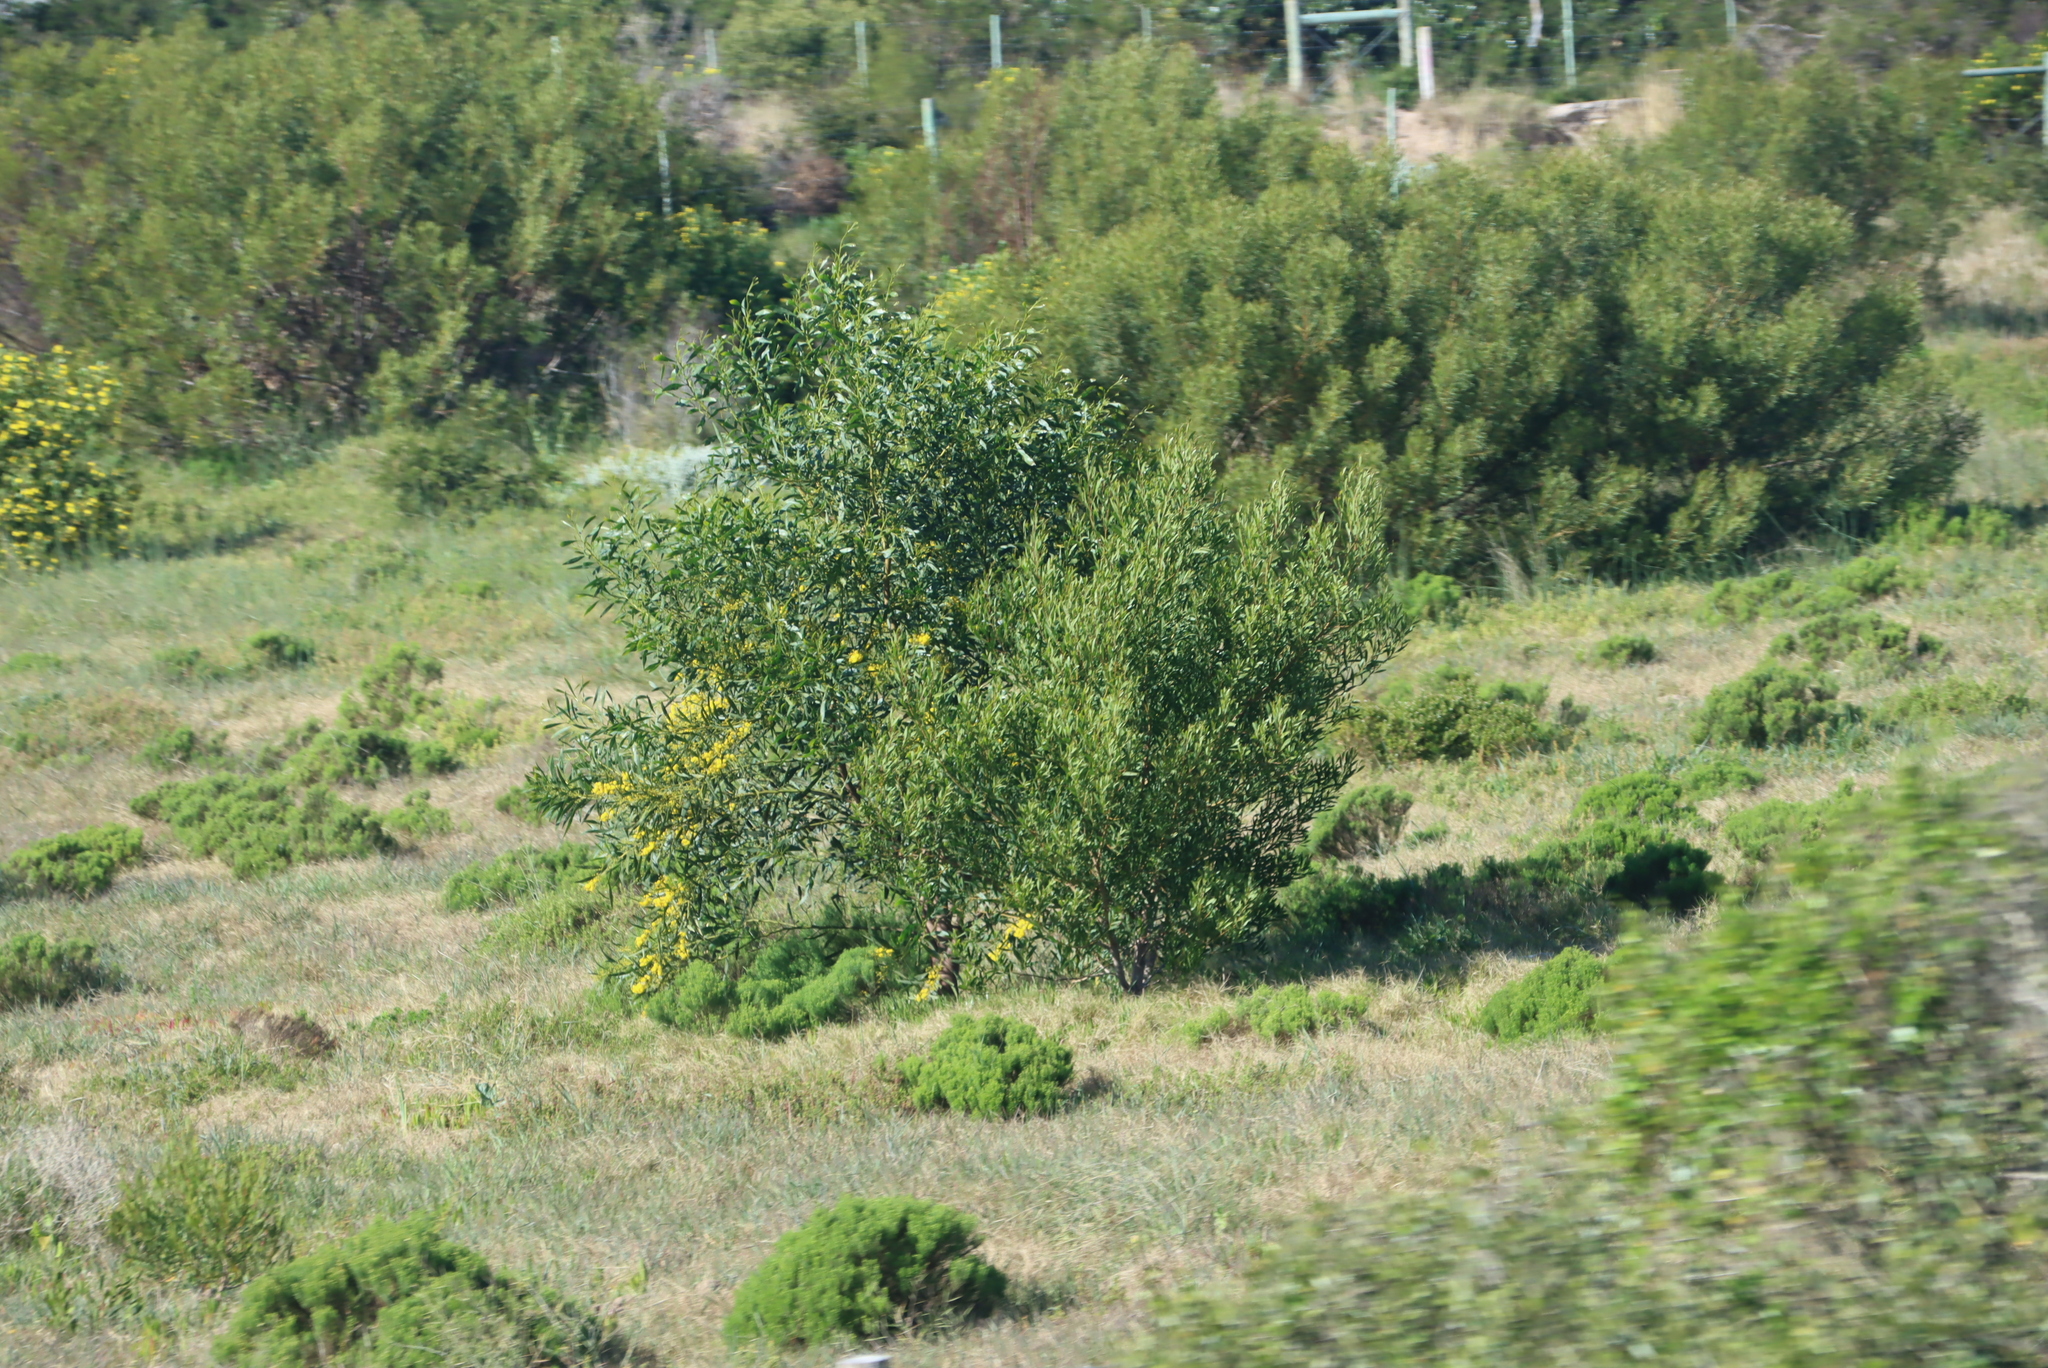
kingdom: Plantae
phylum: Tracheophyta
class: Magnoliopsida
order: Fabales
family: Fabaceae
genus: Acacia
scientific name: Acacia saligna
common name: Orange wattle
